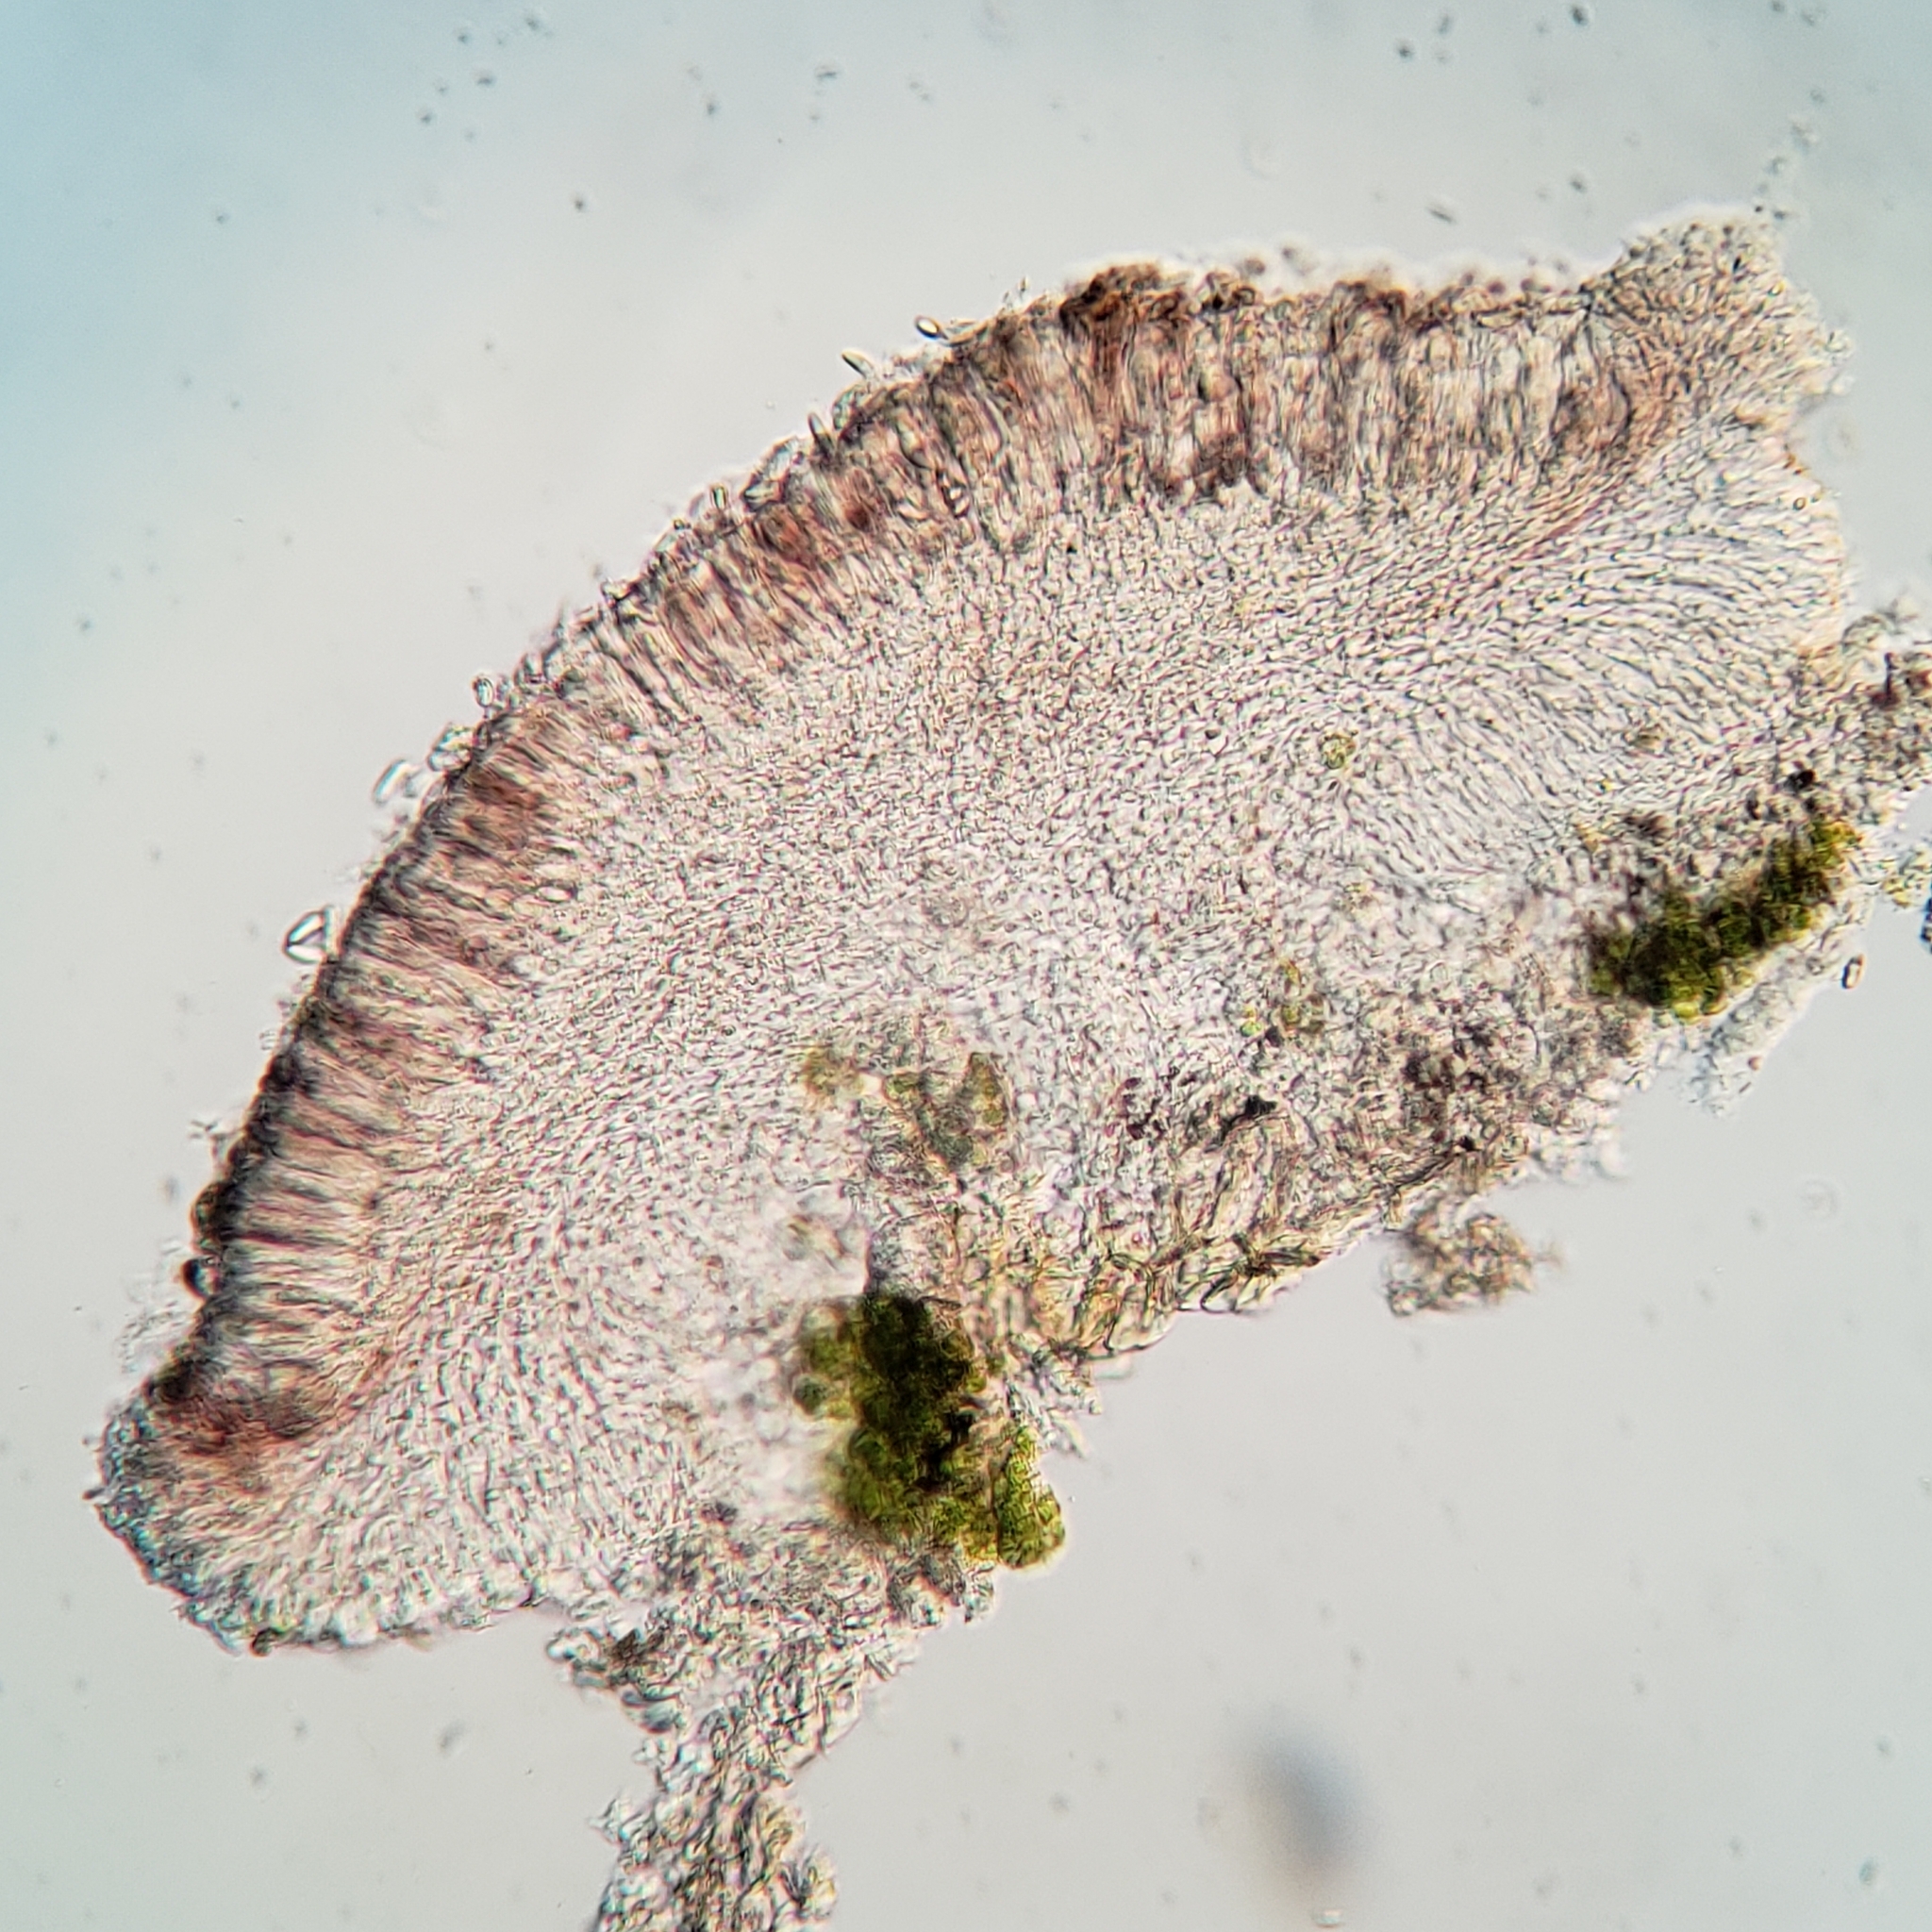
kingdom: Fungi
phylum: Ascomycota
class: Lecanoromycetes
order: Lecanorales
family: Ramalinaceae
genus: Lecania
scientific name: Lecania naegelii
